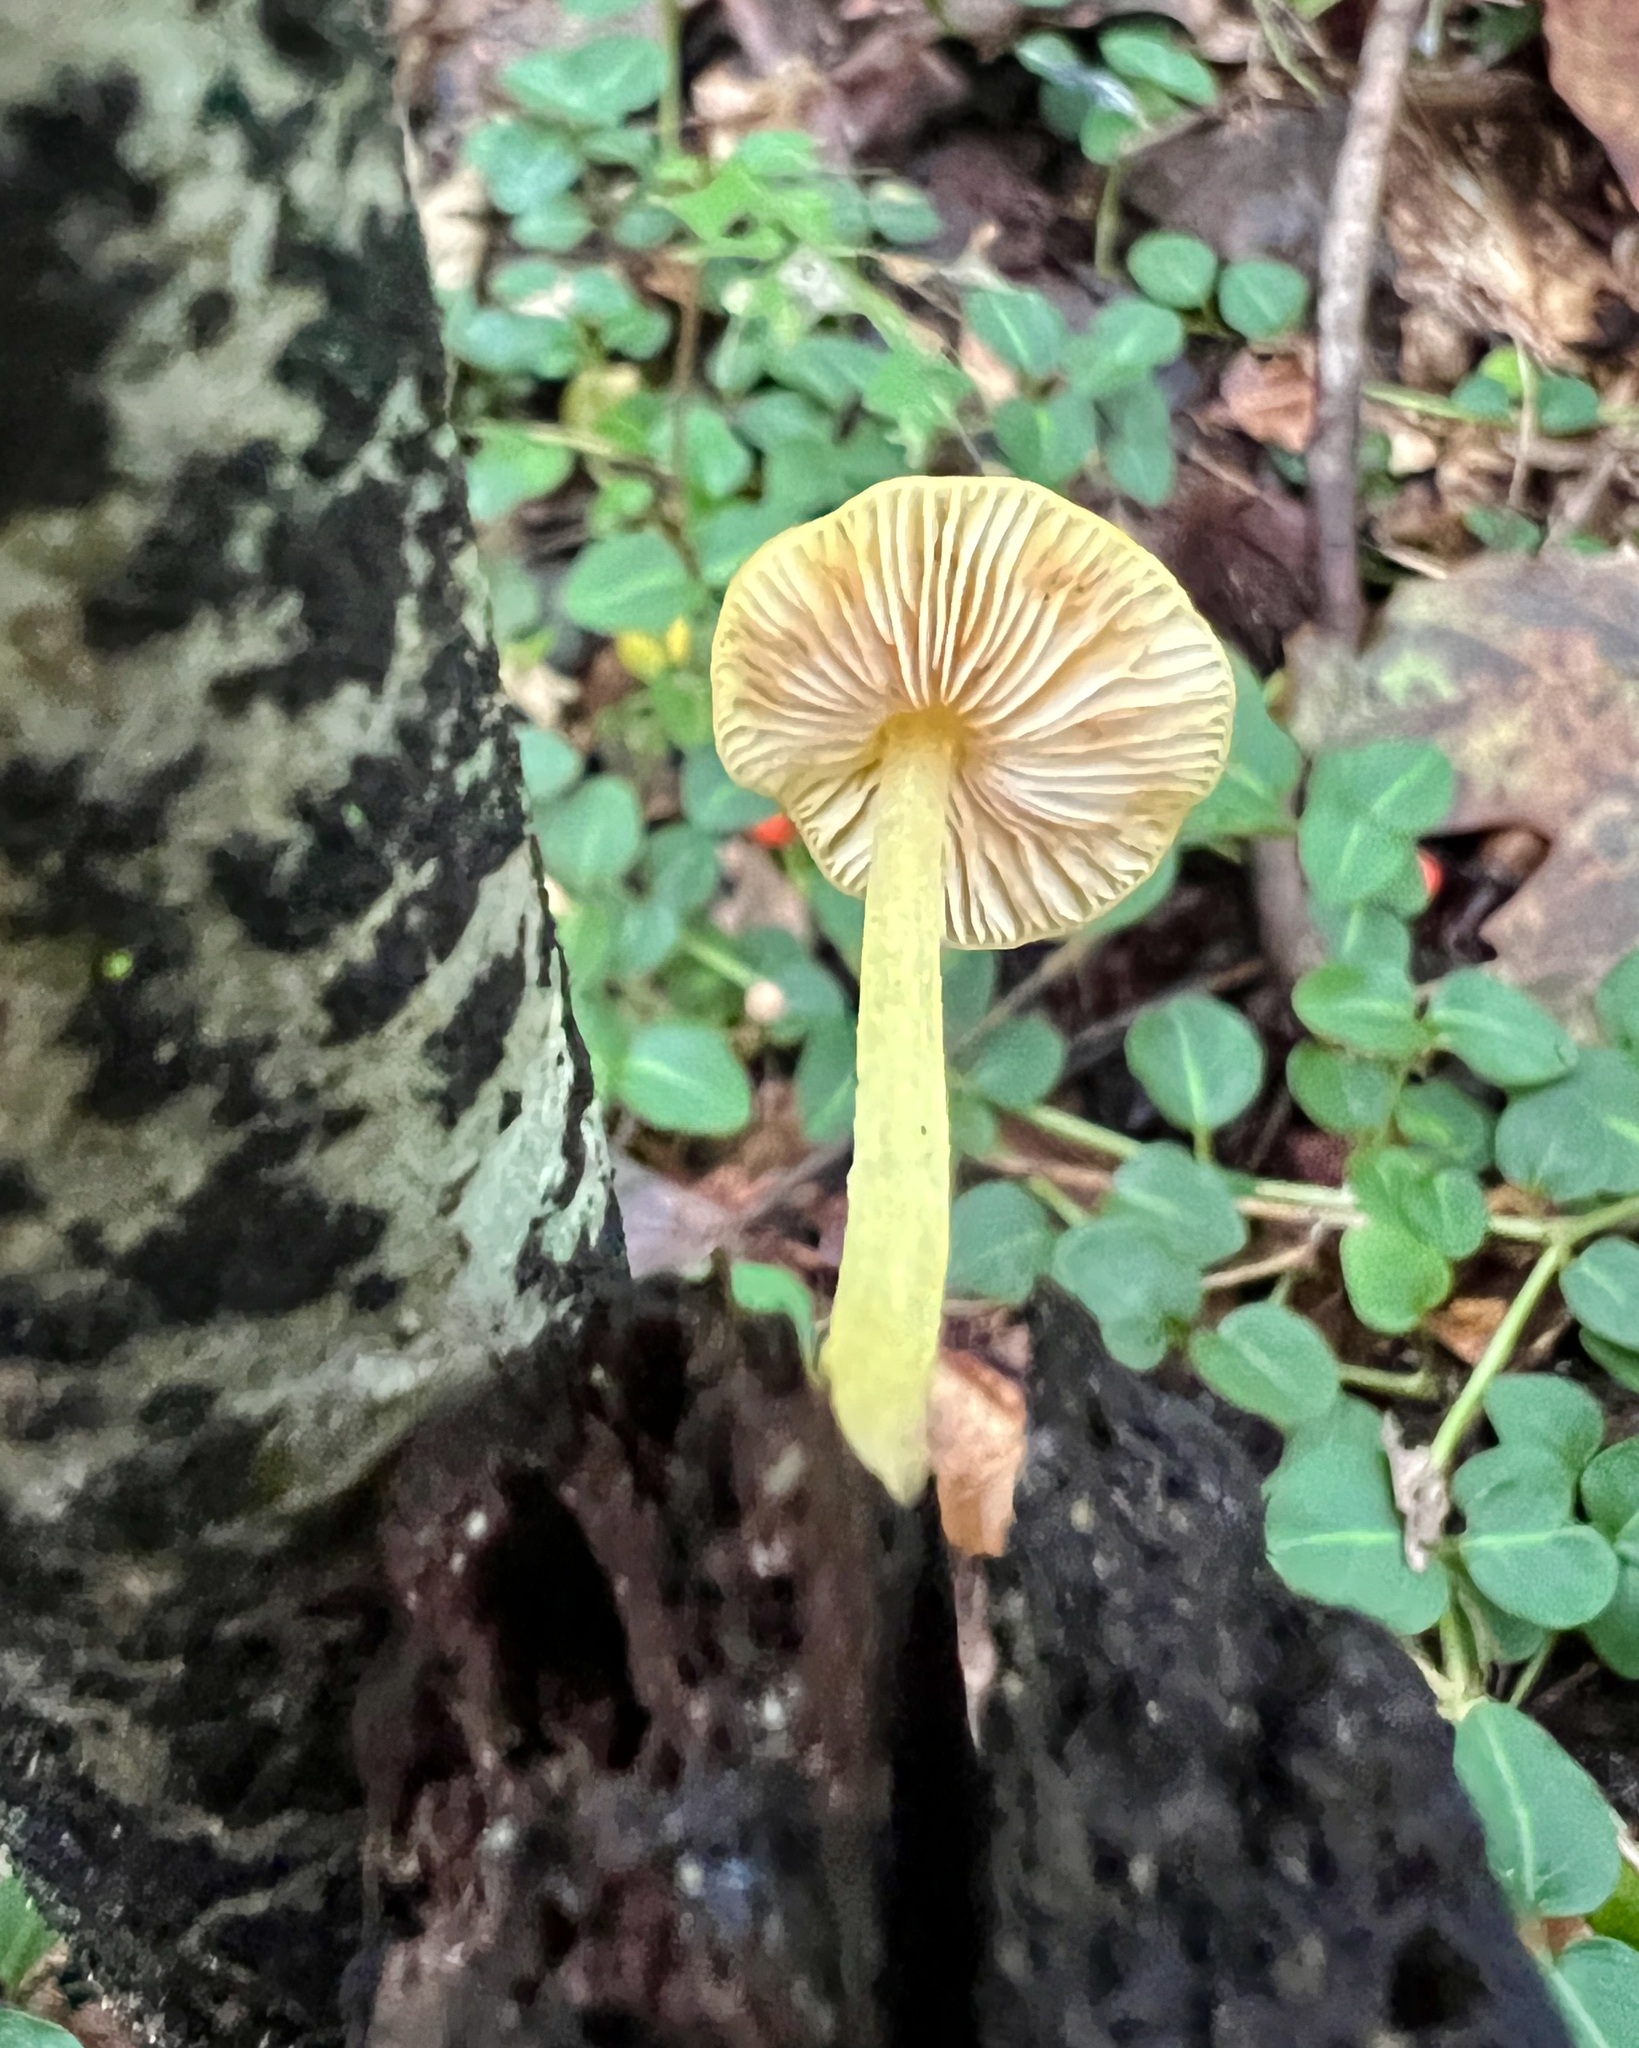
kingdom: Fungi
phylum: Basidiomycota
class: Agaricomycetes
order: Agaricales
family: Pluteaceae
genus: Pluteus
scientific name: Pluteus chrysophlebius
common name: Yellow deer mushroom
